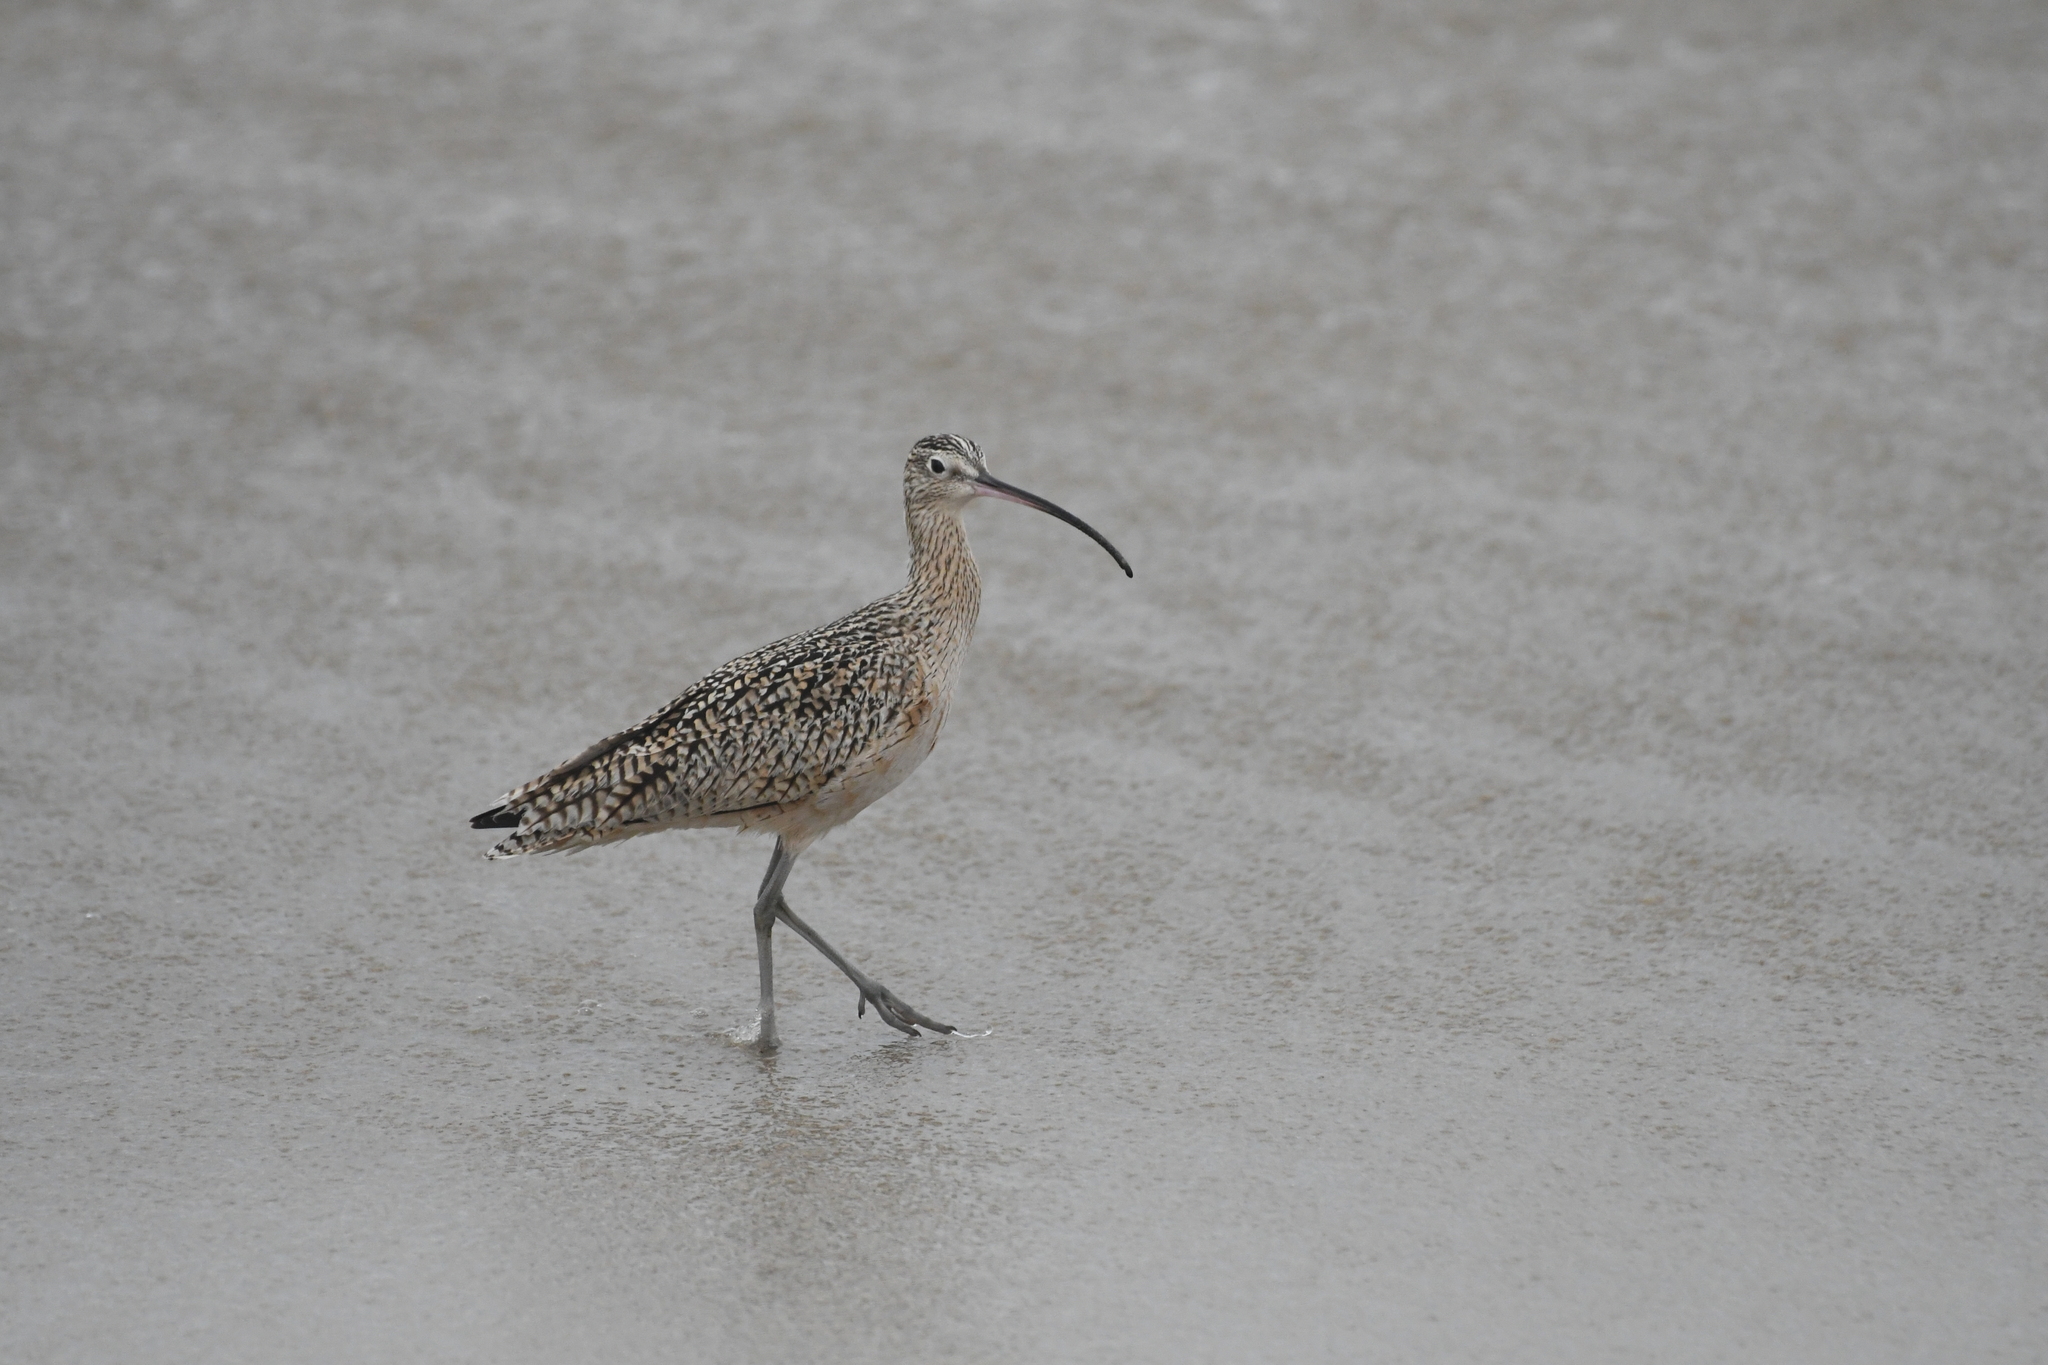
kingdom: Animalia
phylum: Chordata
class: Aves
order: Charadriiformes
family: Scolopacidae
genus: Numenius
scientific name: Numenius americanus
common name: Long-billed curlew
